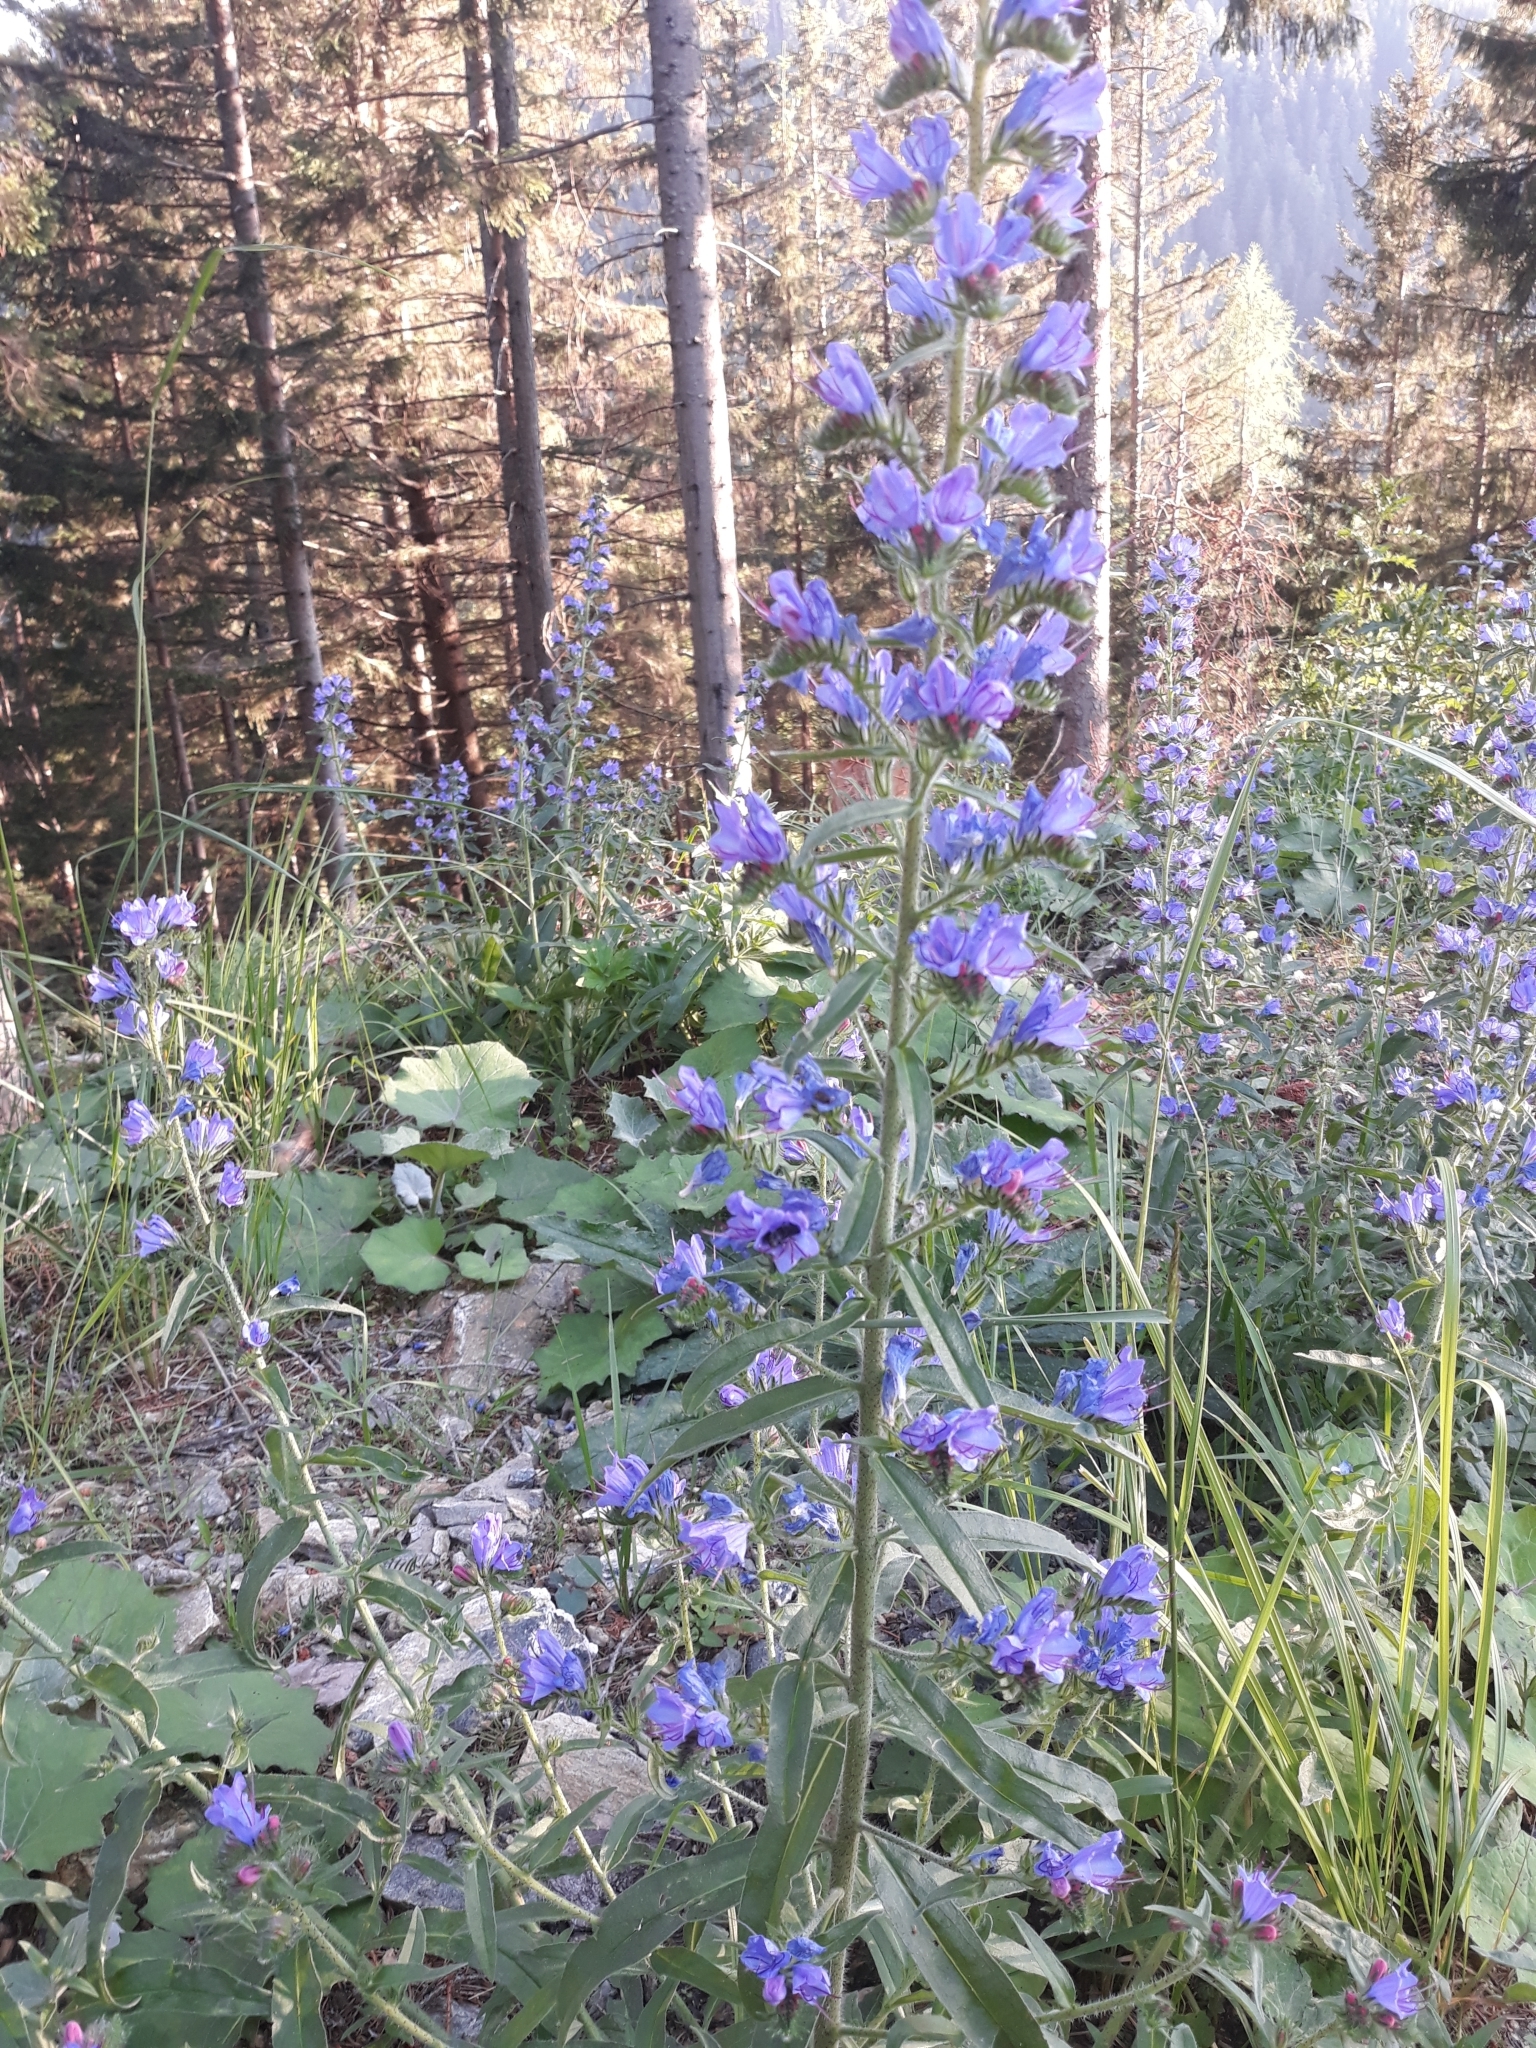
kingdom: Plantae
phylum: Tracheophyta
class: Magnoliopsida
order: Boraginales
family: Boraginaceae
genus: Echium
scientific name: Echium vulgare
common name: Common viper's bugloss
